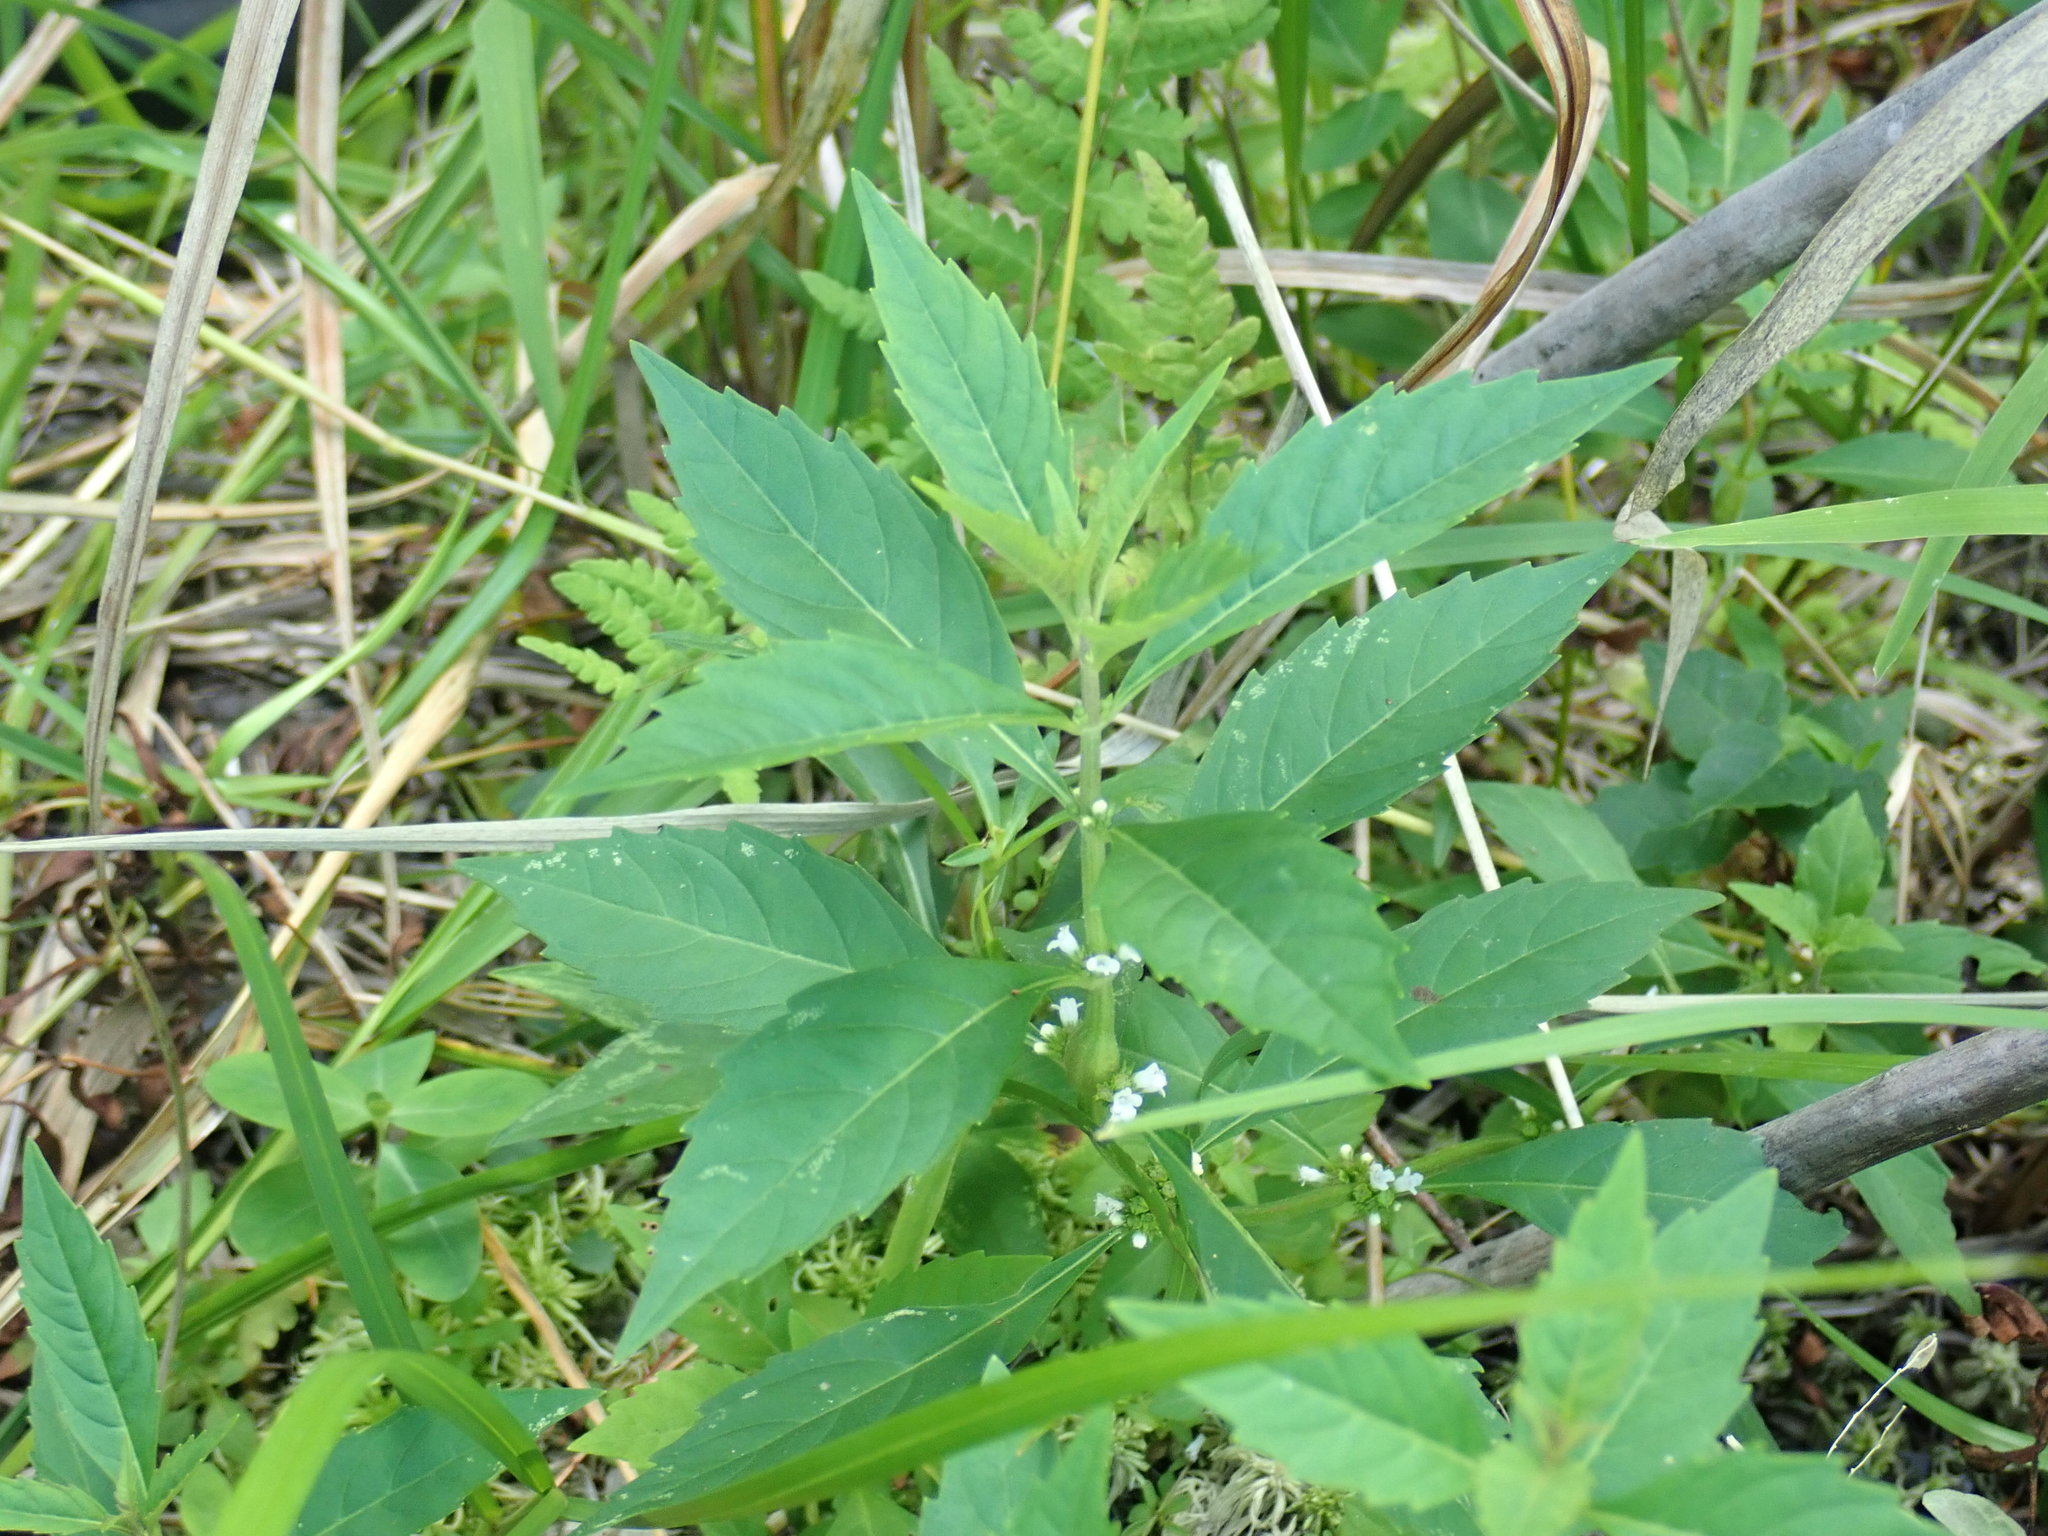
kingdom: Plantae
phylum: Tracheophyta
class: Magnoliopsida
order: Lamiales
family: Lamiaceae
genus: Lycopus
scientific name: Lycopus uniflorus
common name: Northern bugleweed
